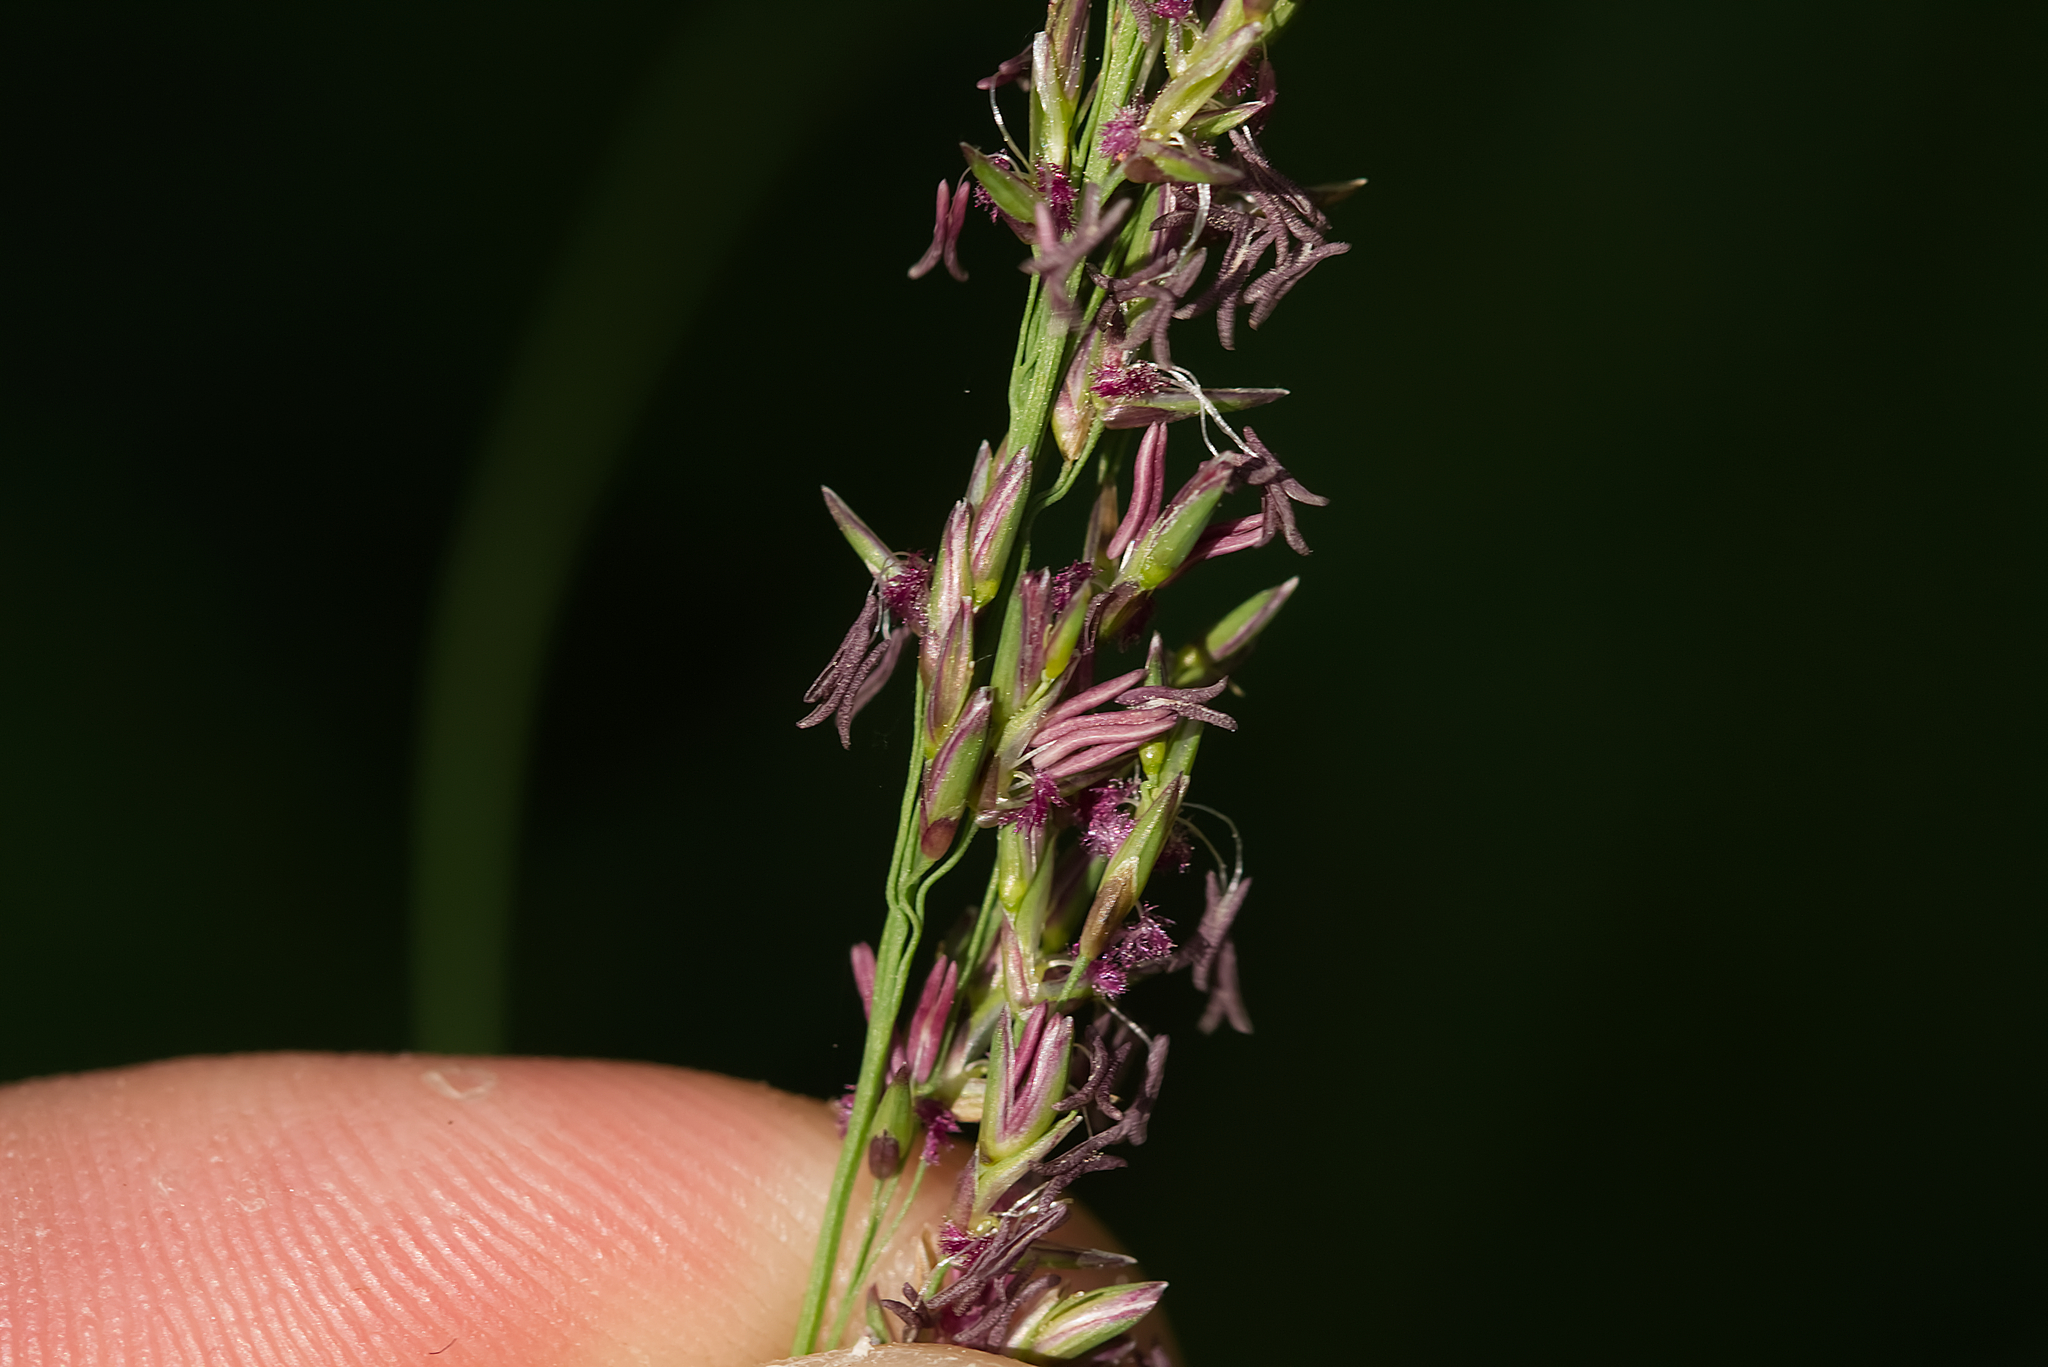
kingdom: Plantae
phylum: Tracheophyta
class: Liliopsida
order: Poales
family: Poaceae
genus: Molinia
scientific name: Molinia caerulea
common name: Purple moor-grass
